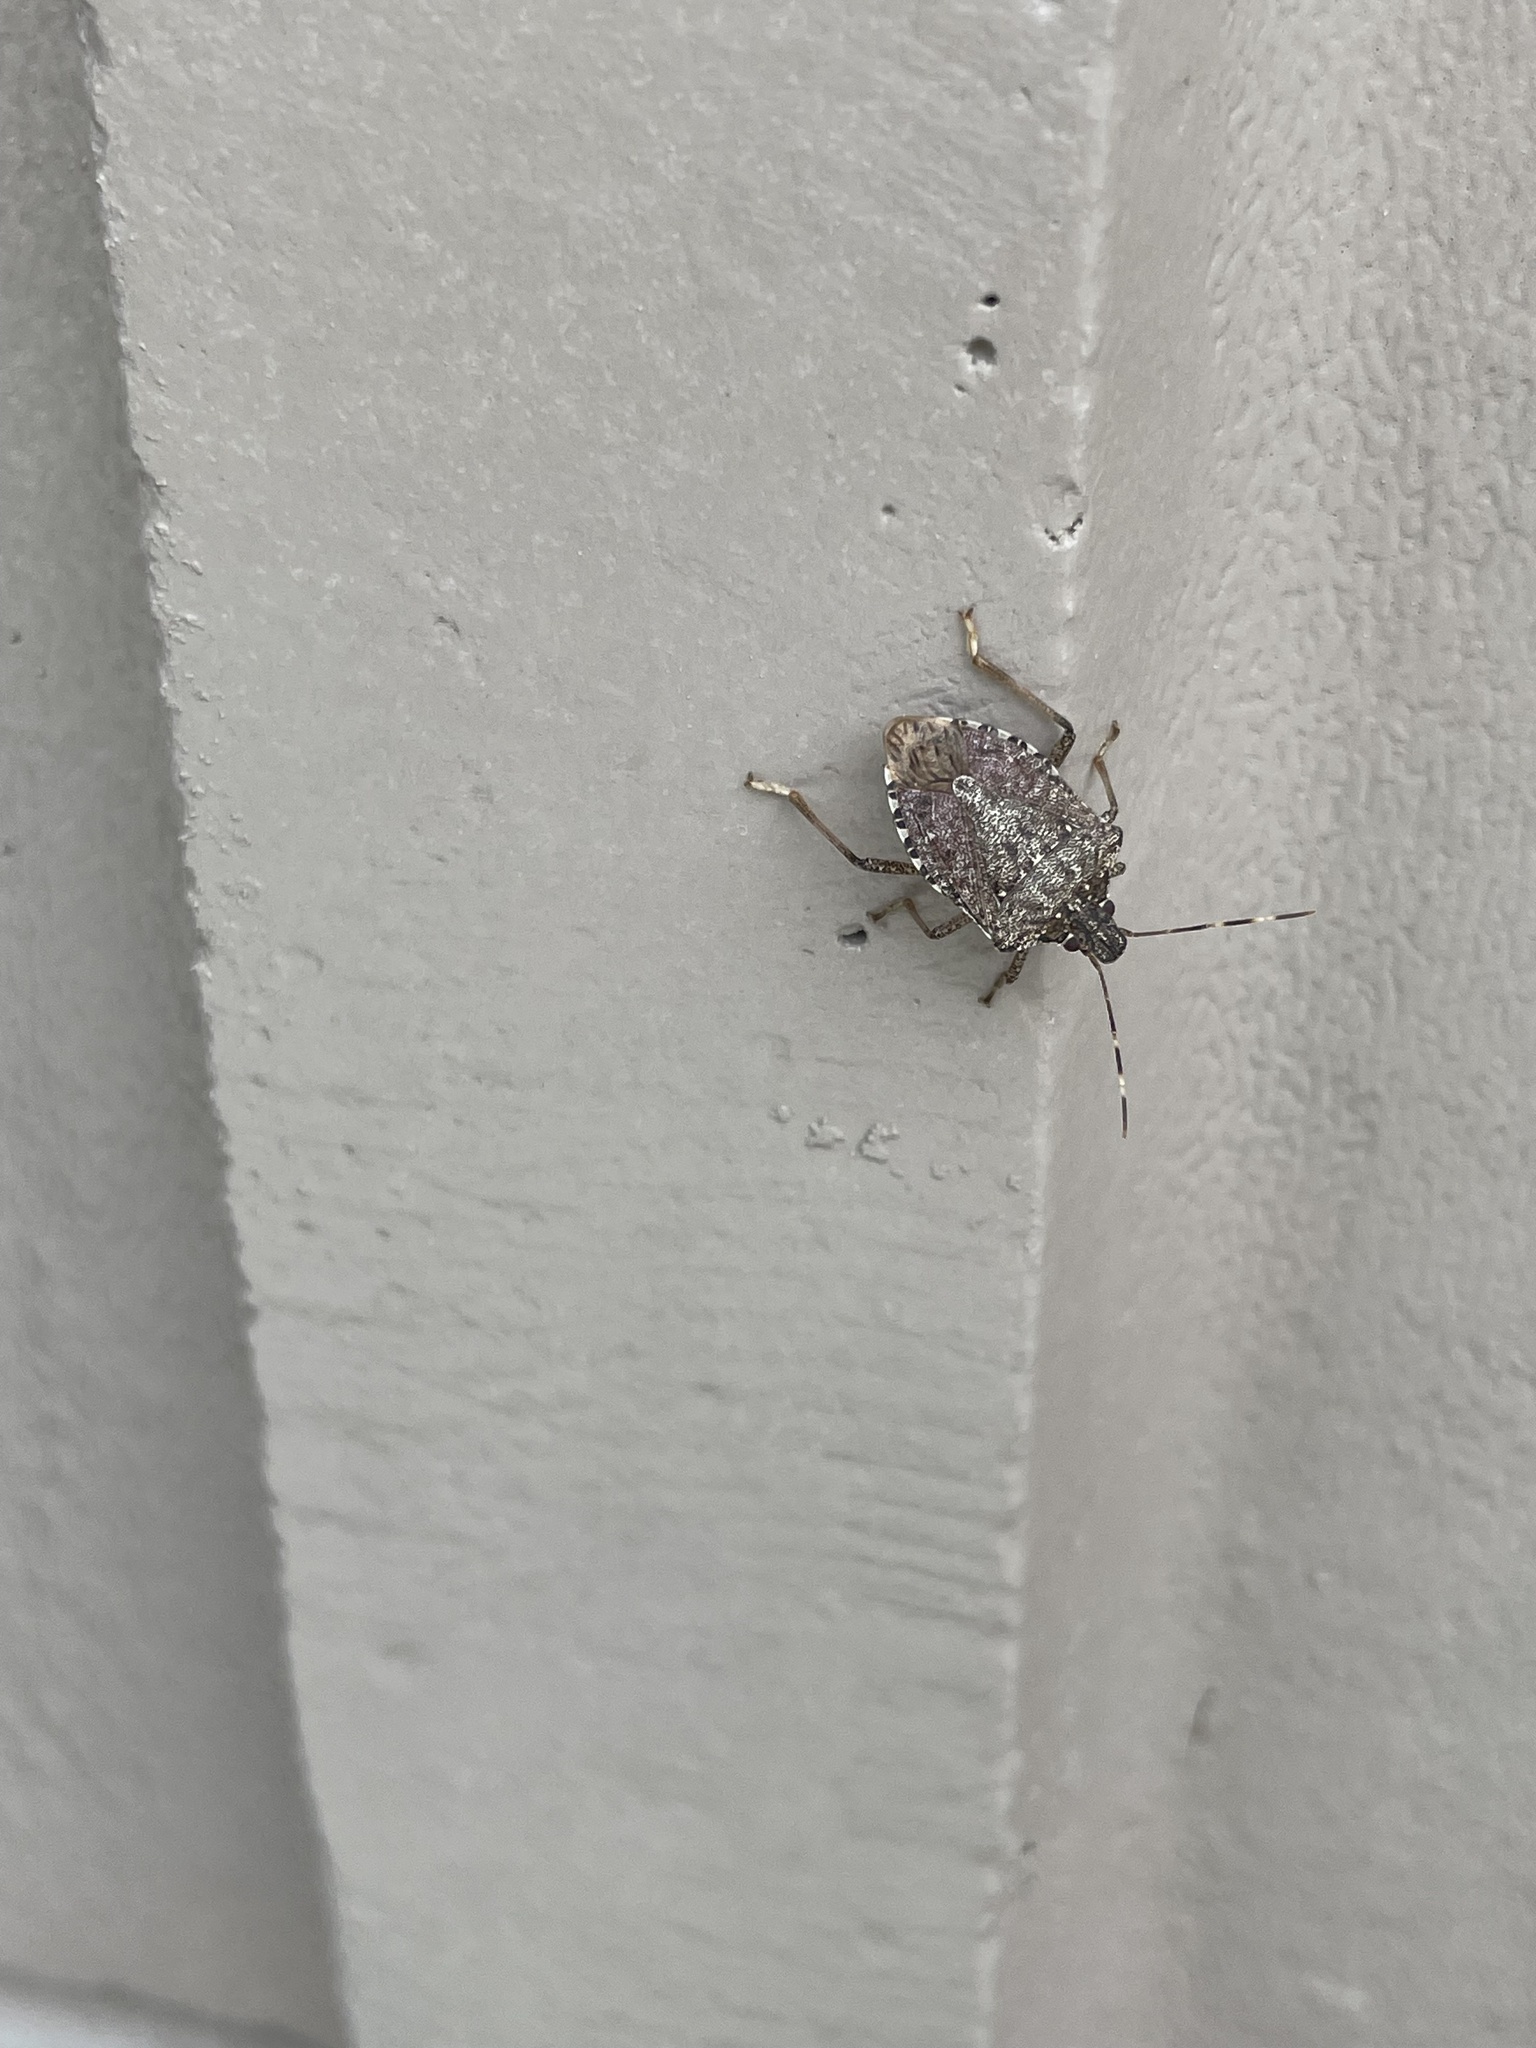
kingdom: Animalia
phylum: Arthropoda
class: Insecta
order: Hemiptera
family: Pentatomidae
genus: Halyomorpha
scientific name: Halyomorpha halys
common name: Brown marmorated stink bug
